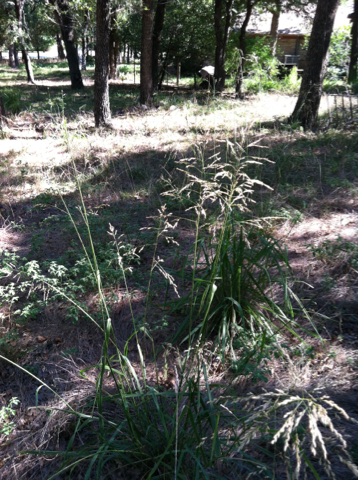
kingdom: Plantae
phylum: Tracheophyta
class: Liliopsida
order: Poales
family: Poaceae
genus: Tridens
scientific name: Tridens flavus
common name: Purpletop
